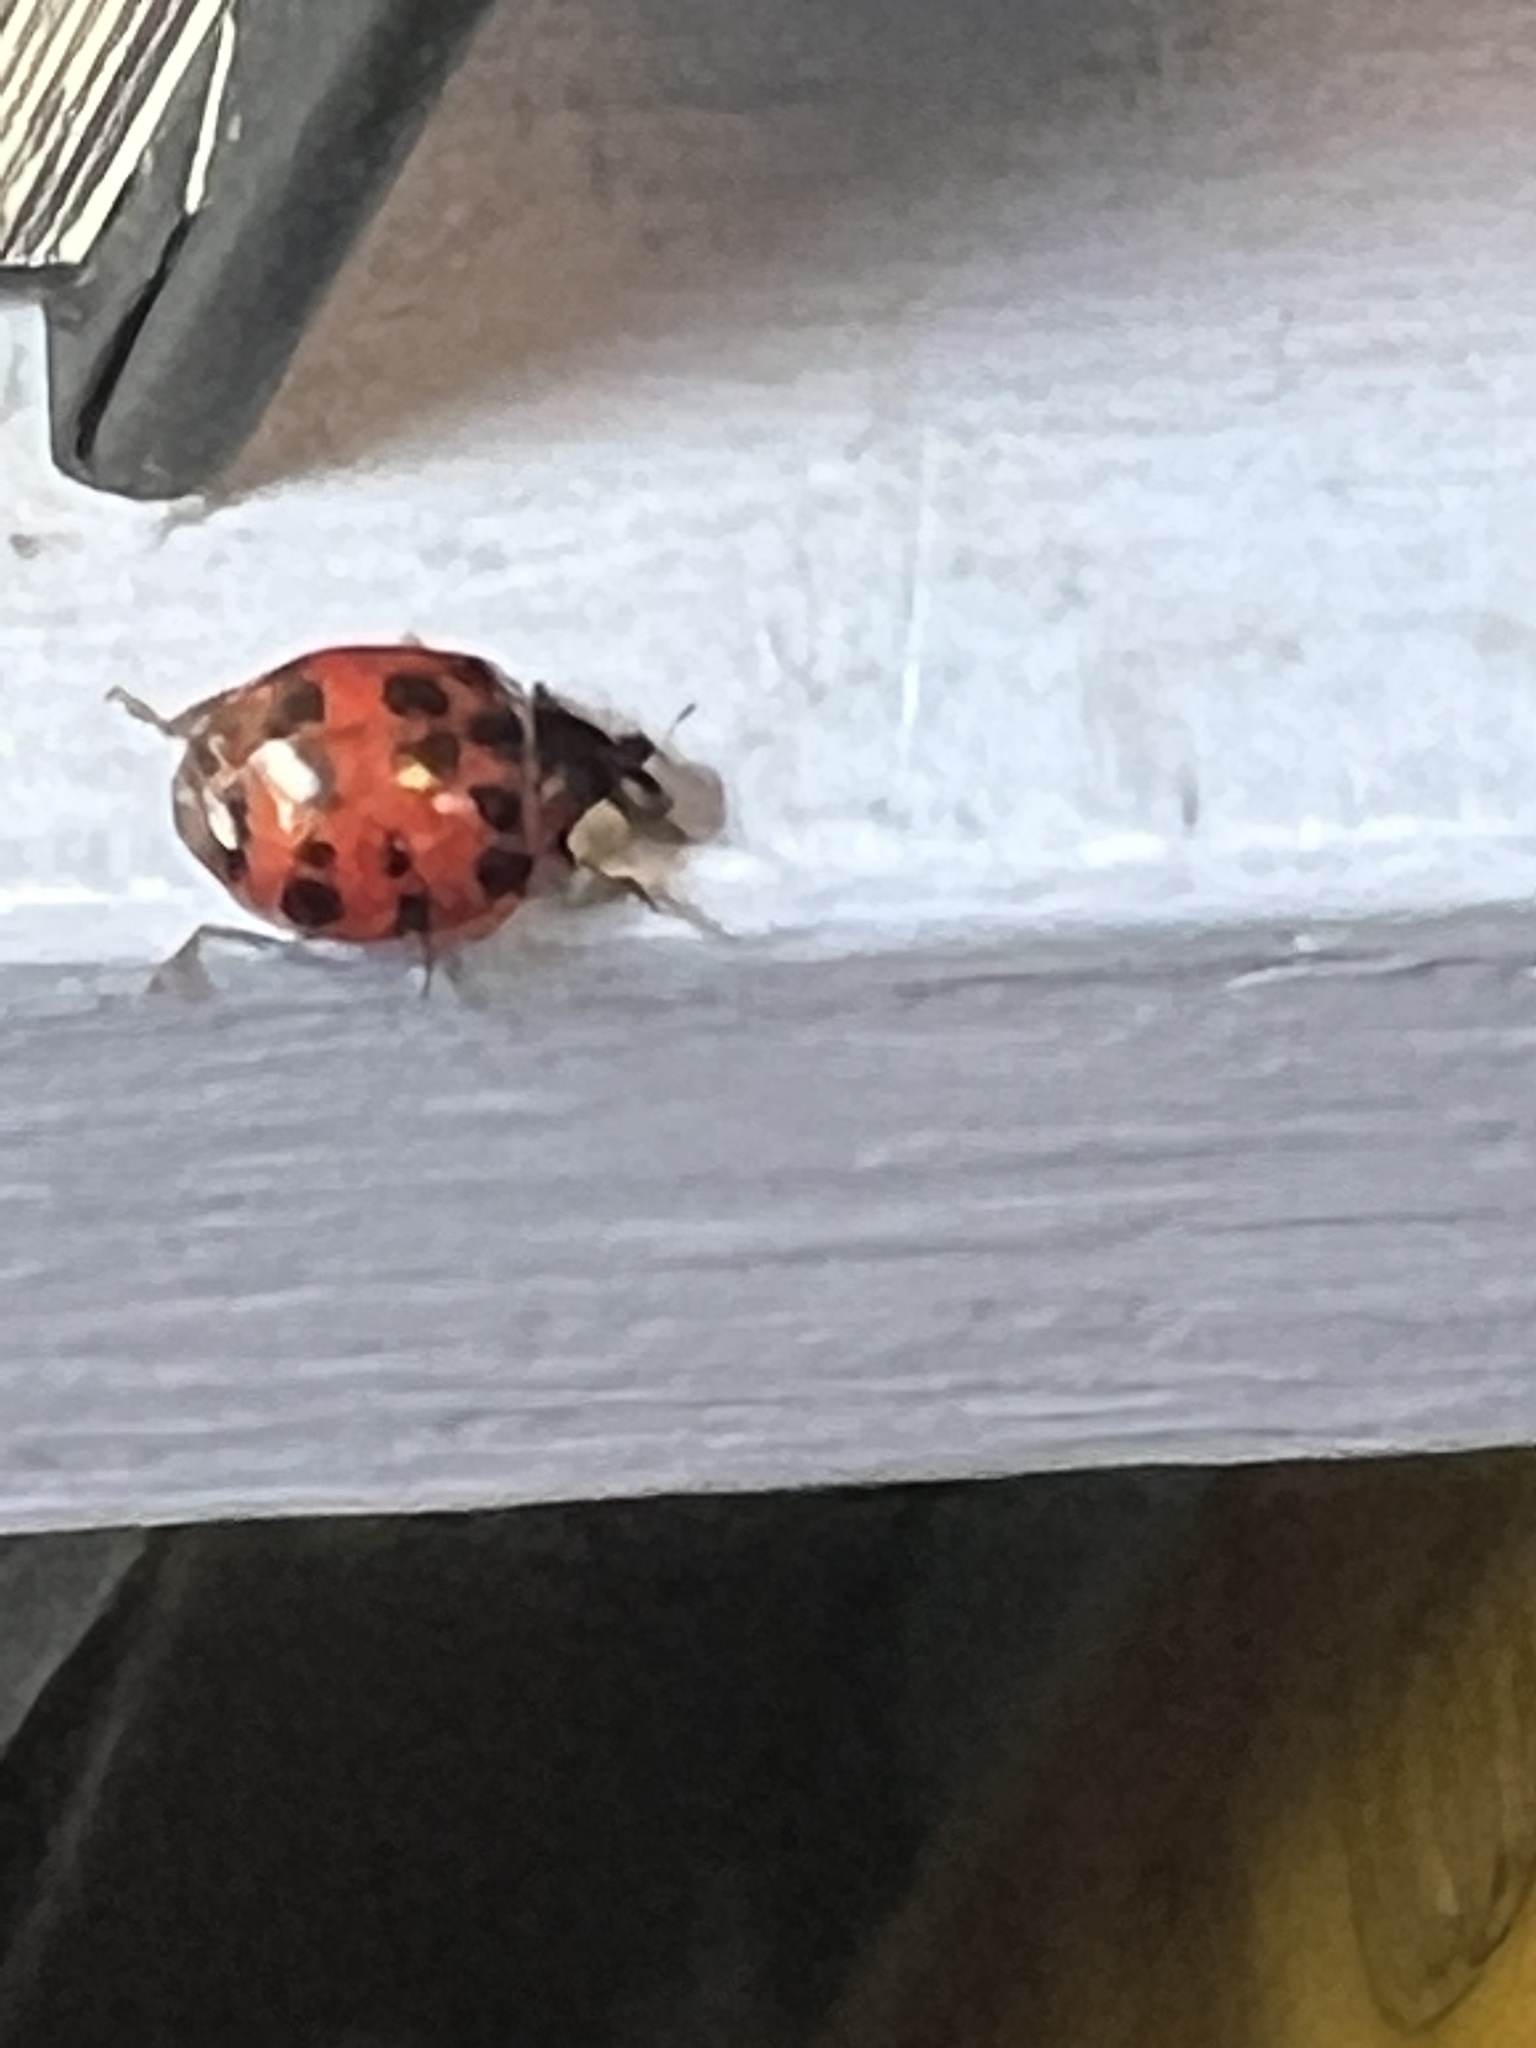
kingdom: Animalia
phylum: Arthropoda
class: Insecta
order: Coleoptera
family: Coccinellidae
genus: Harmonia
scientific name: Harmonia axyridis
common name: Harlequin ladybird
